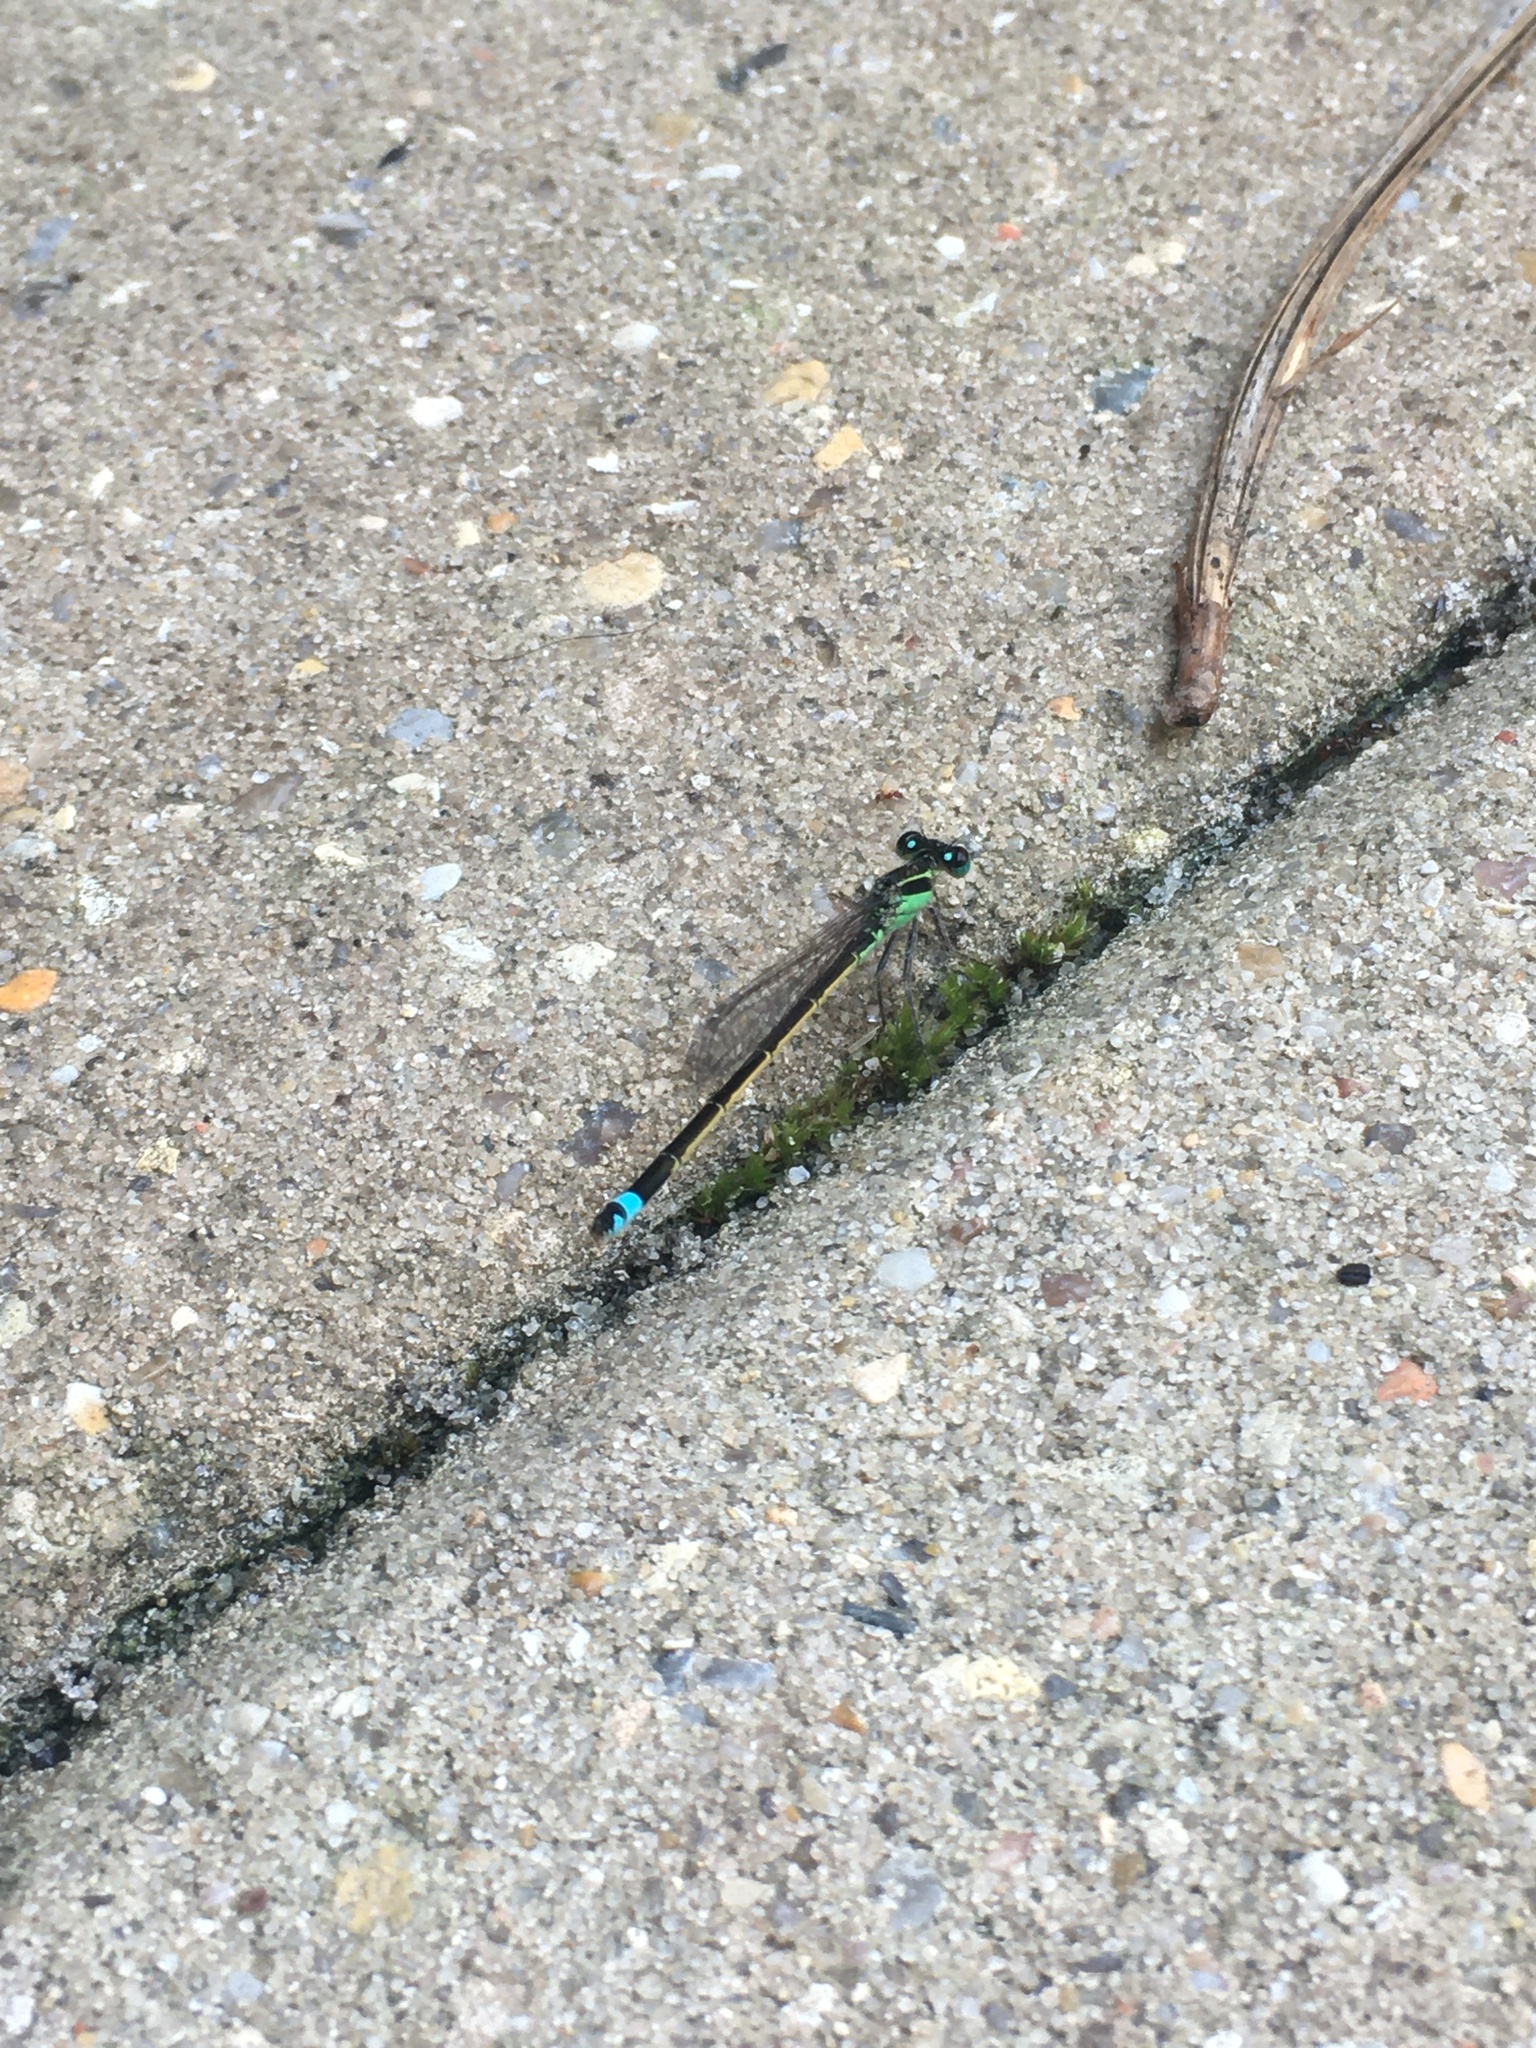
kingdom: Animalia
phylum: Arthropoda
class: Insecta
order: Odonata
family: Coenagrionidae
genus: Ischnura
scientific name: Ischnura ramburii
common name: Rambur's forktail
